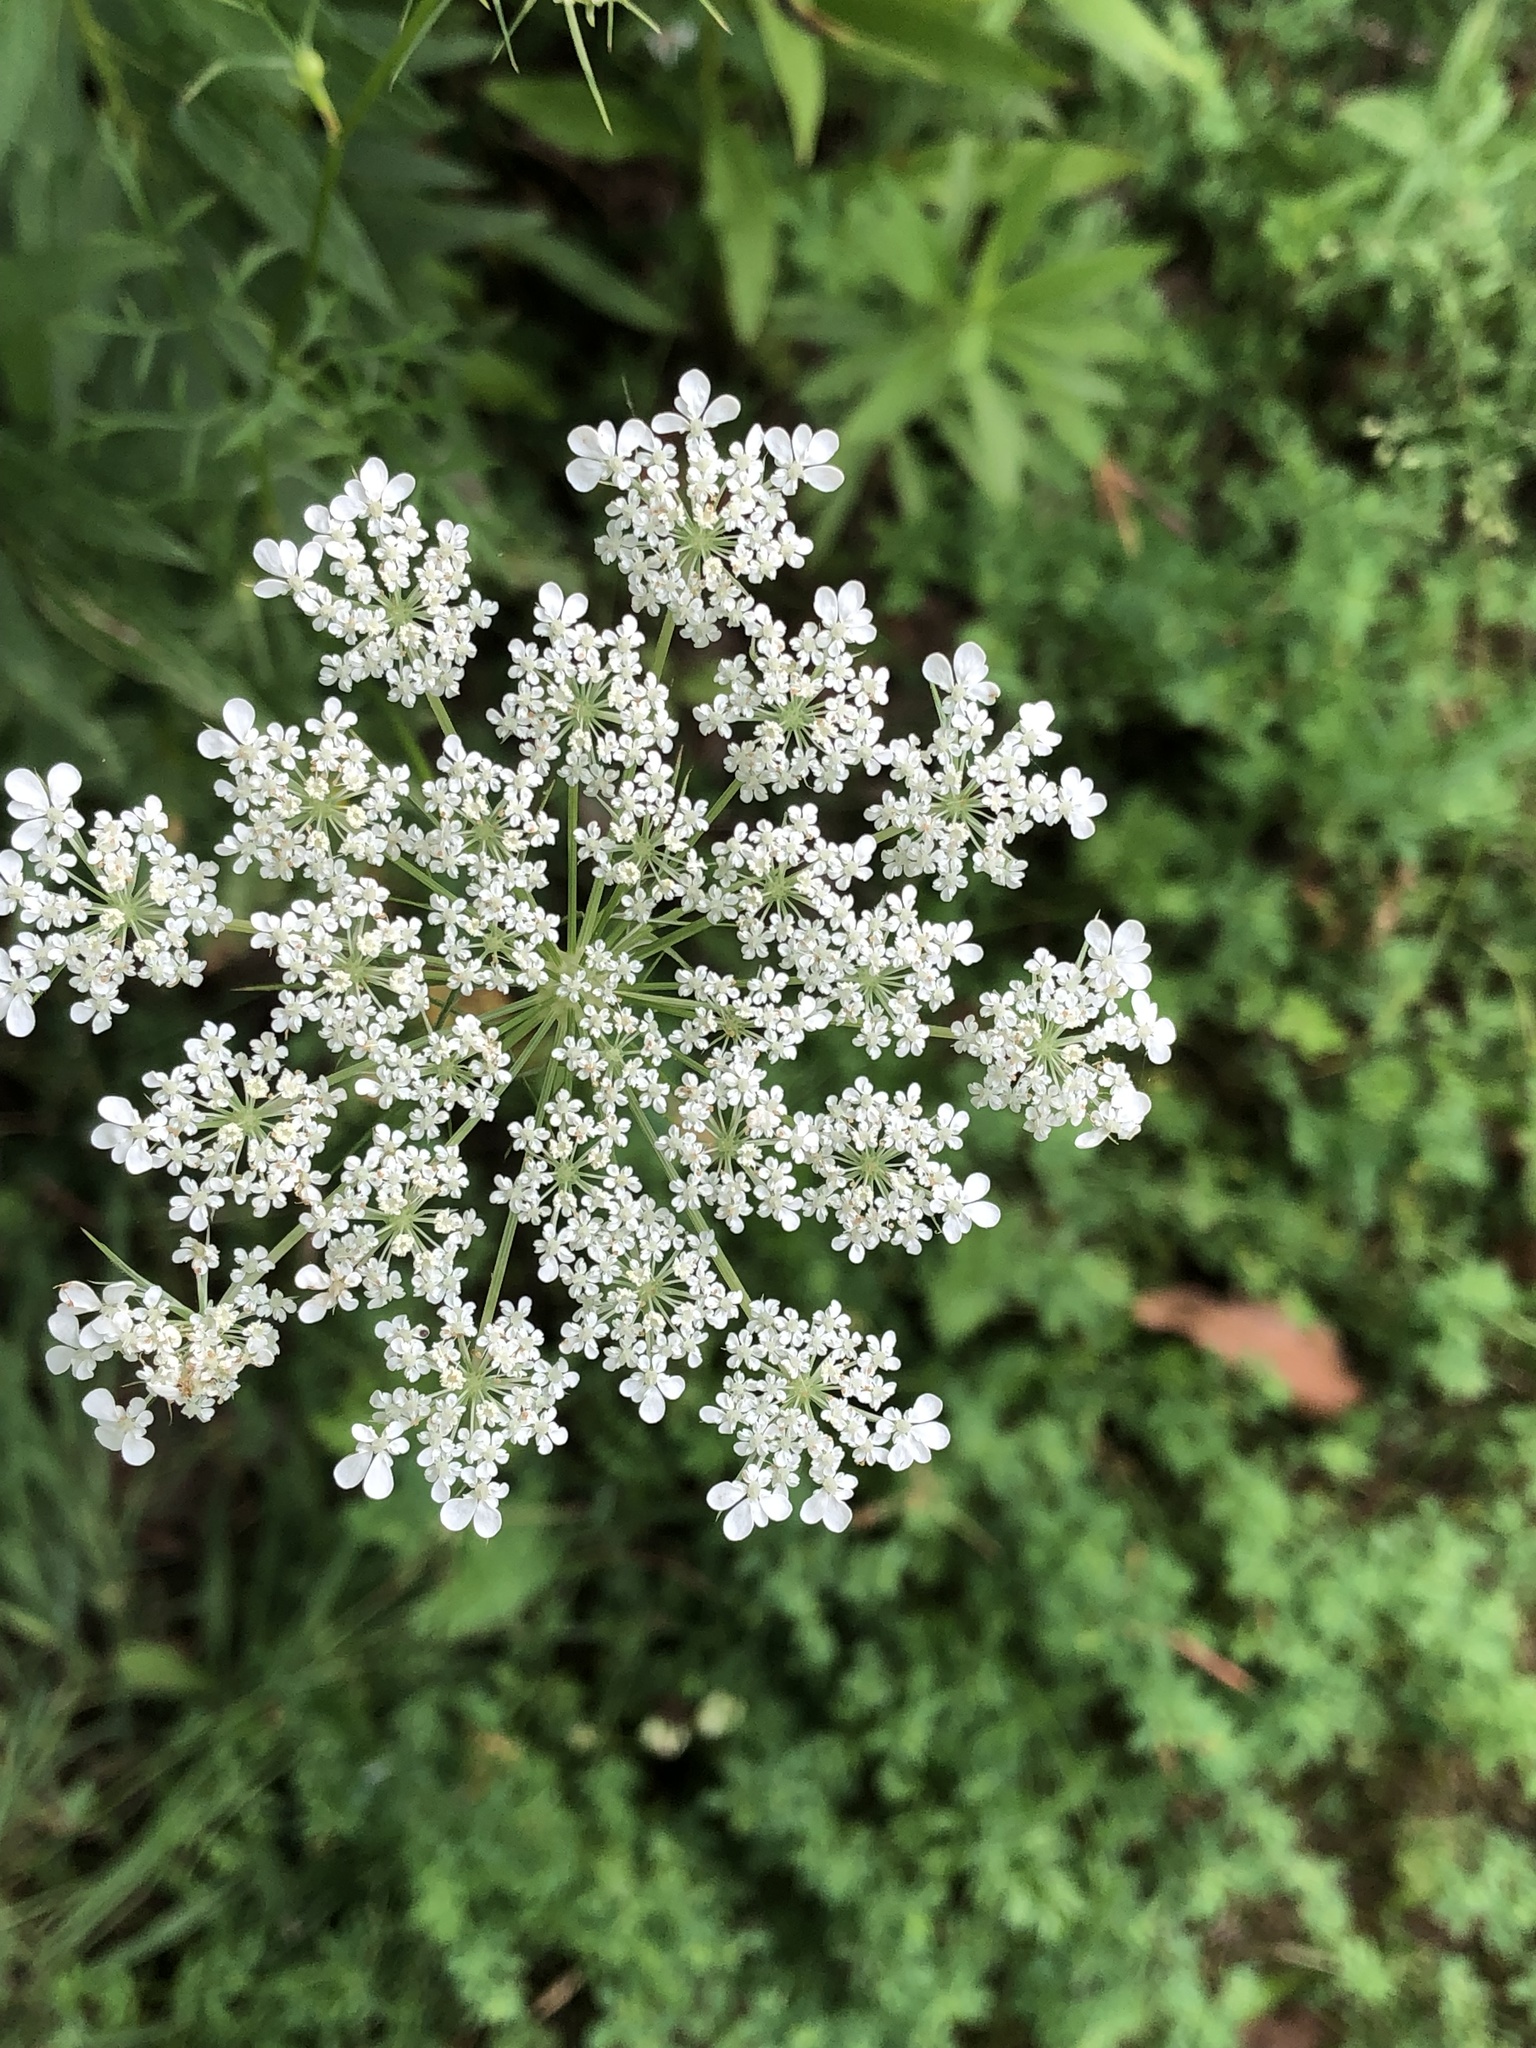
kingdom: Plantae
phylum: Tracheophyta
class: Magnoliopsida
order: Apiales
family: Apiaceae
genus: Daucus
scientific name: Daucus carota
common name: Wild carrot
